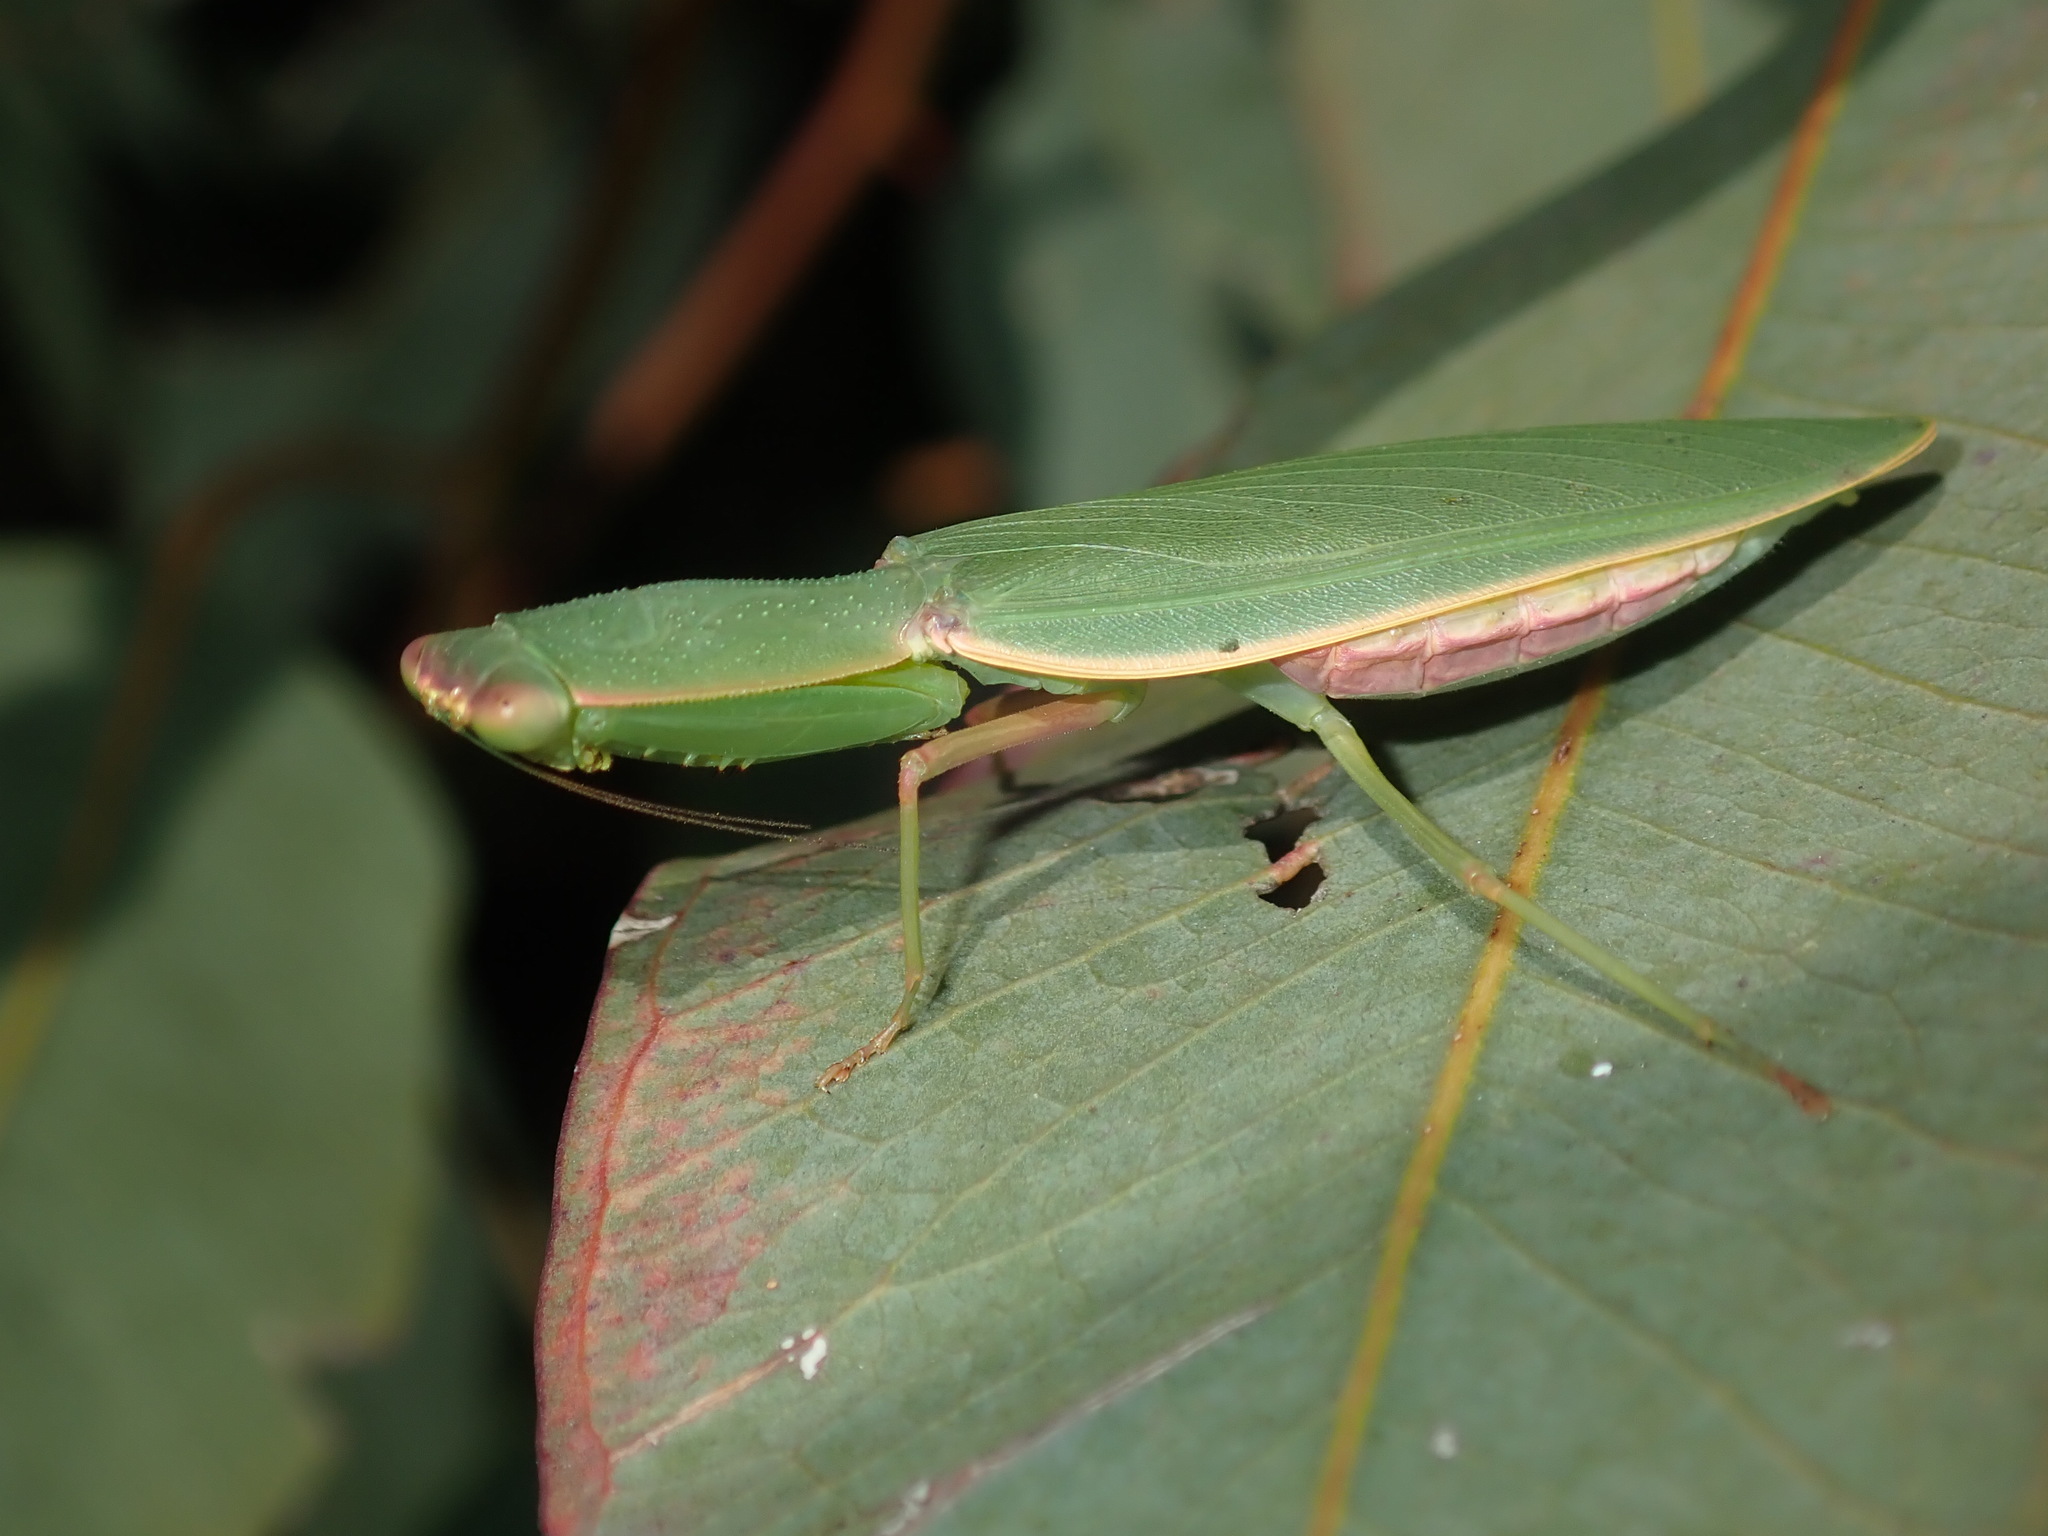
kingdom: Animalia
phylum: Arthropoda
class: Insecta
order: Mantodea
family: Mantidae
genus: Orthodera
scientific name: Orthodera ministralis
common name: Mantis
